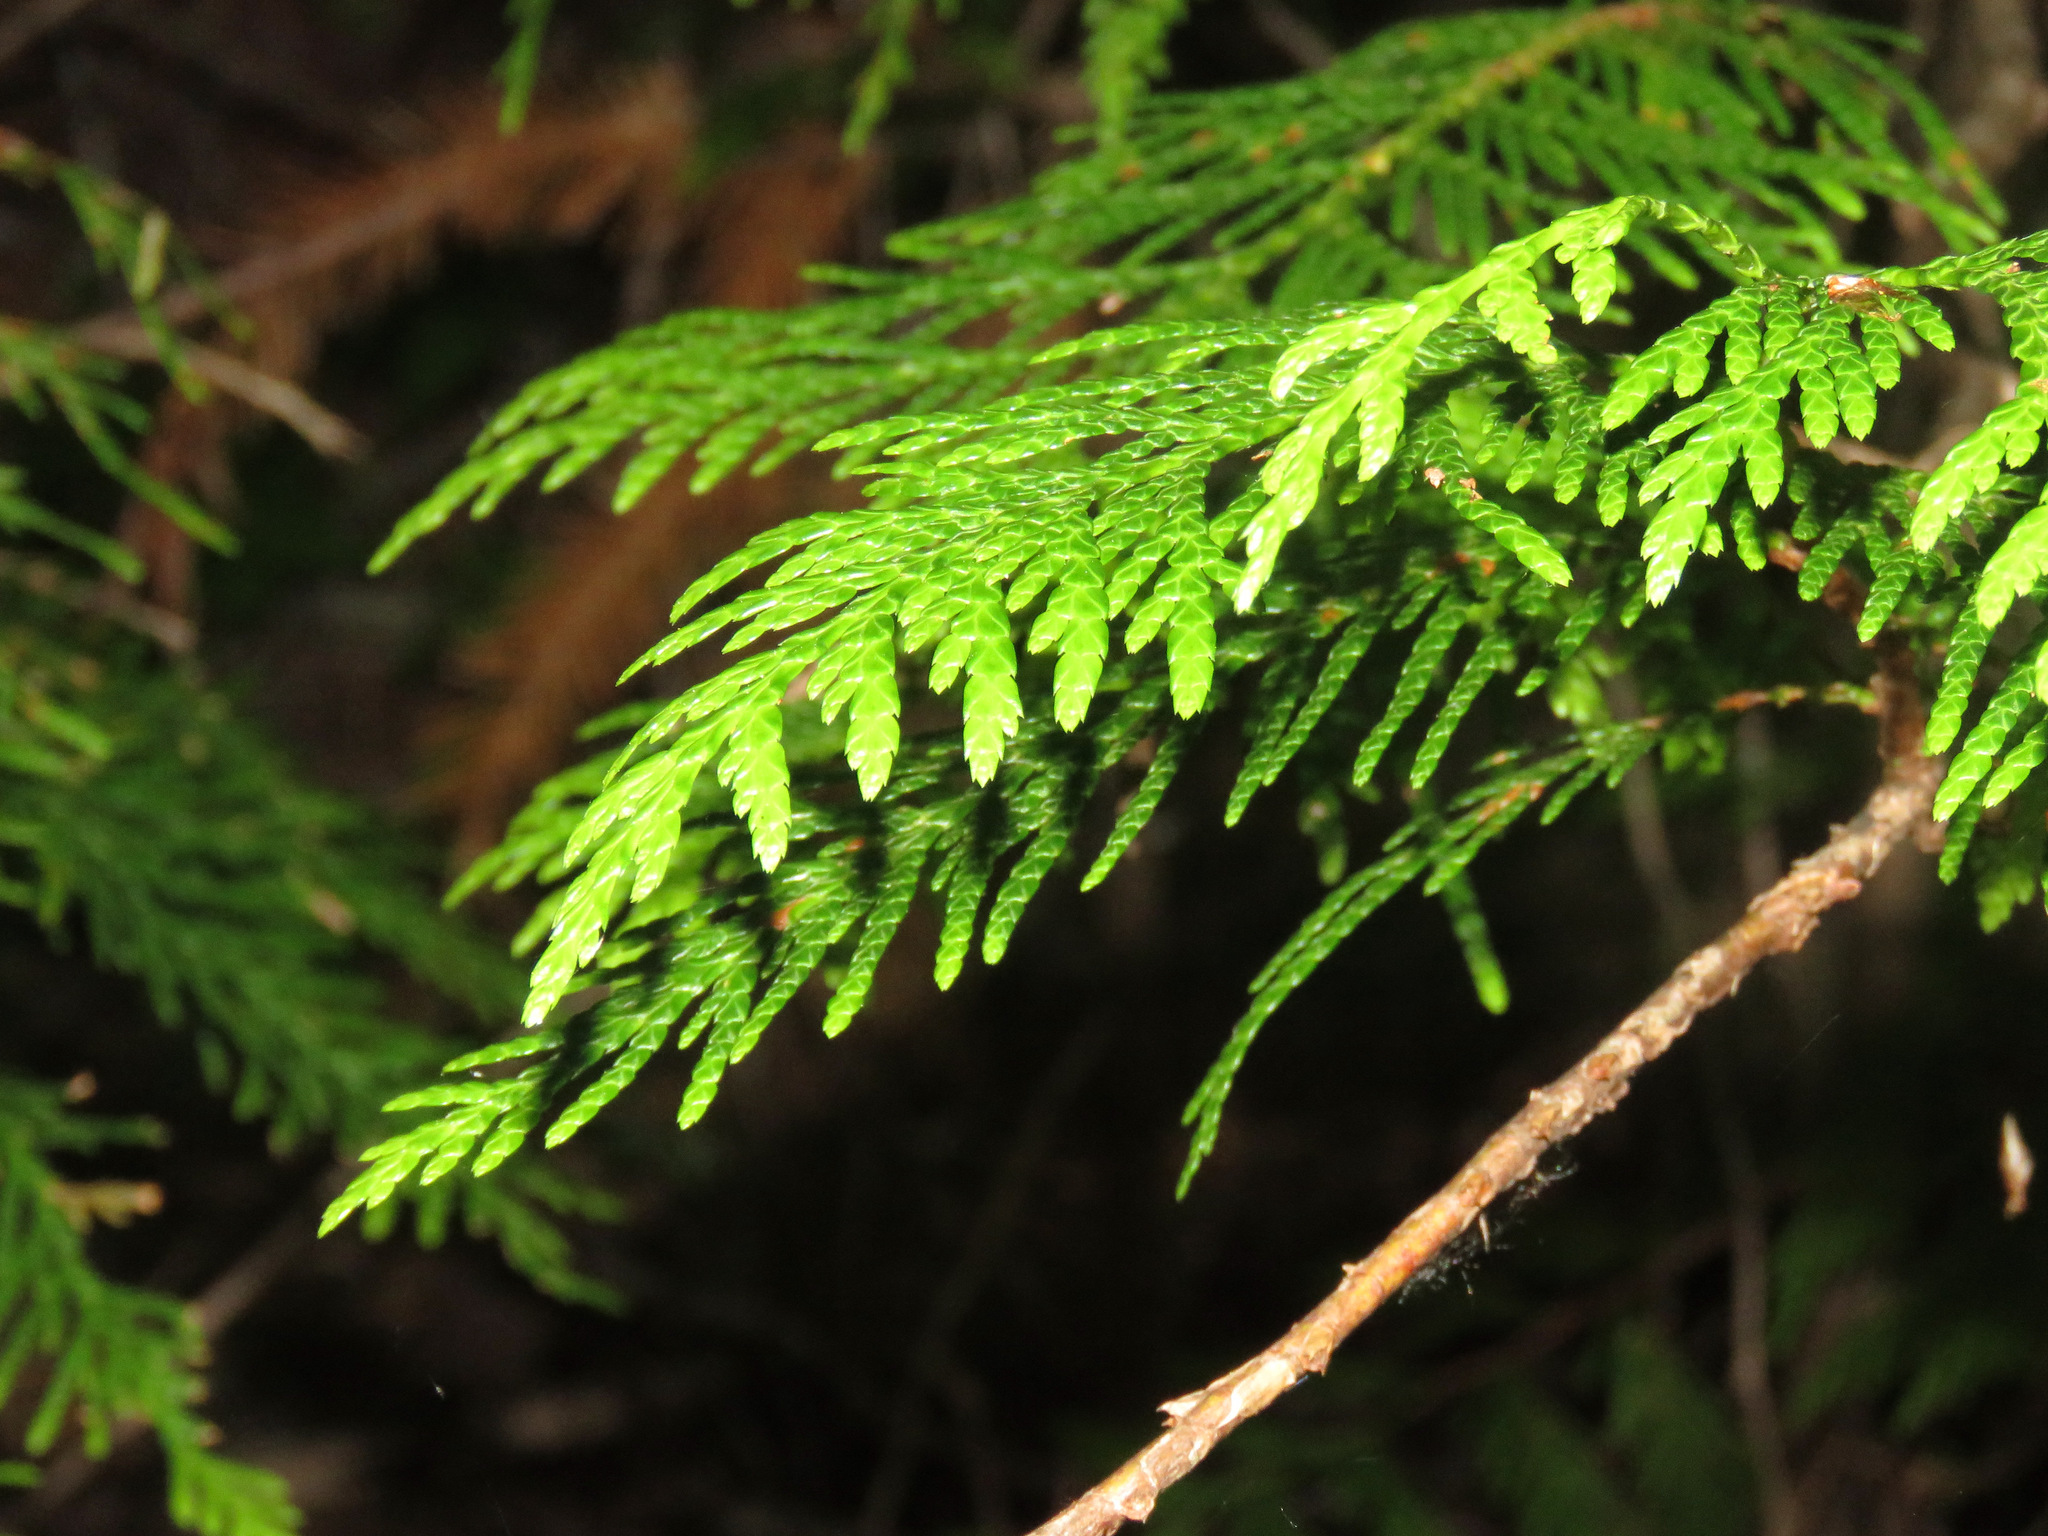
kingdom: Plantae
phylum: Tracheophyta
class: Pinopsida
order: Pinales
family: Cupressaceae
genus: Thuja
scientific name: Thuja plicata
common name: Western red-cedar
